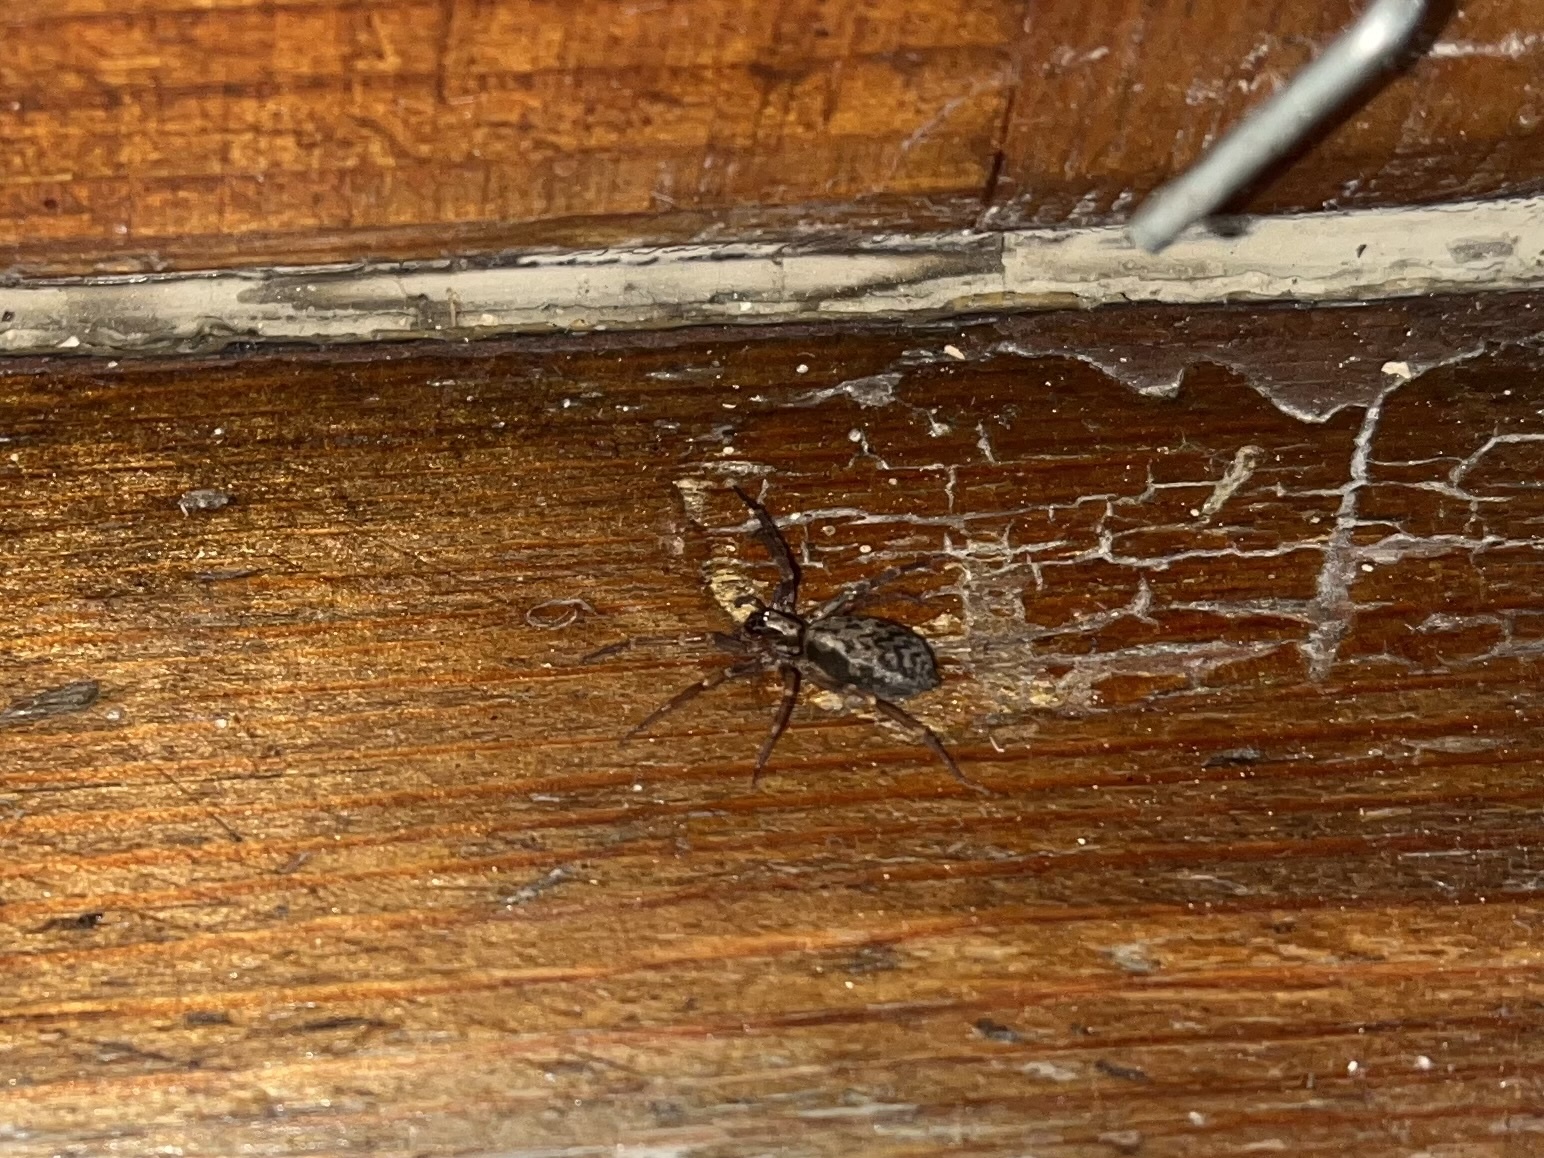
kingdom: Animalia
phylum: Arthropoda
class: Arachnida
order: Araneae
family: Liocranidae
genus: Liocranum
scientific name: Liocranum rupicola
